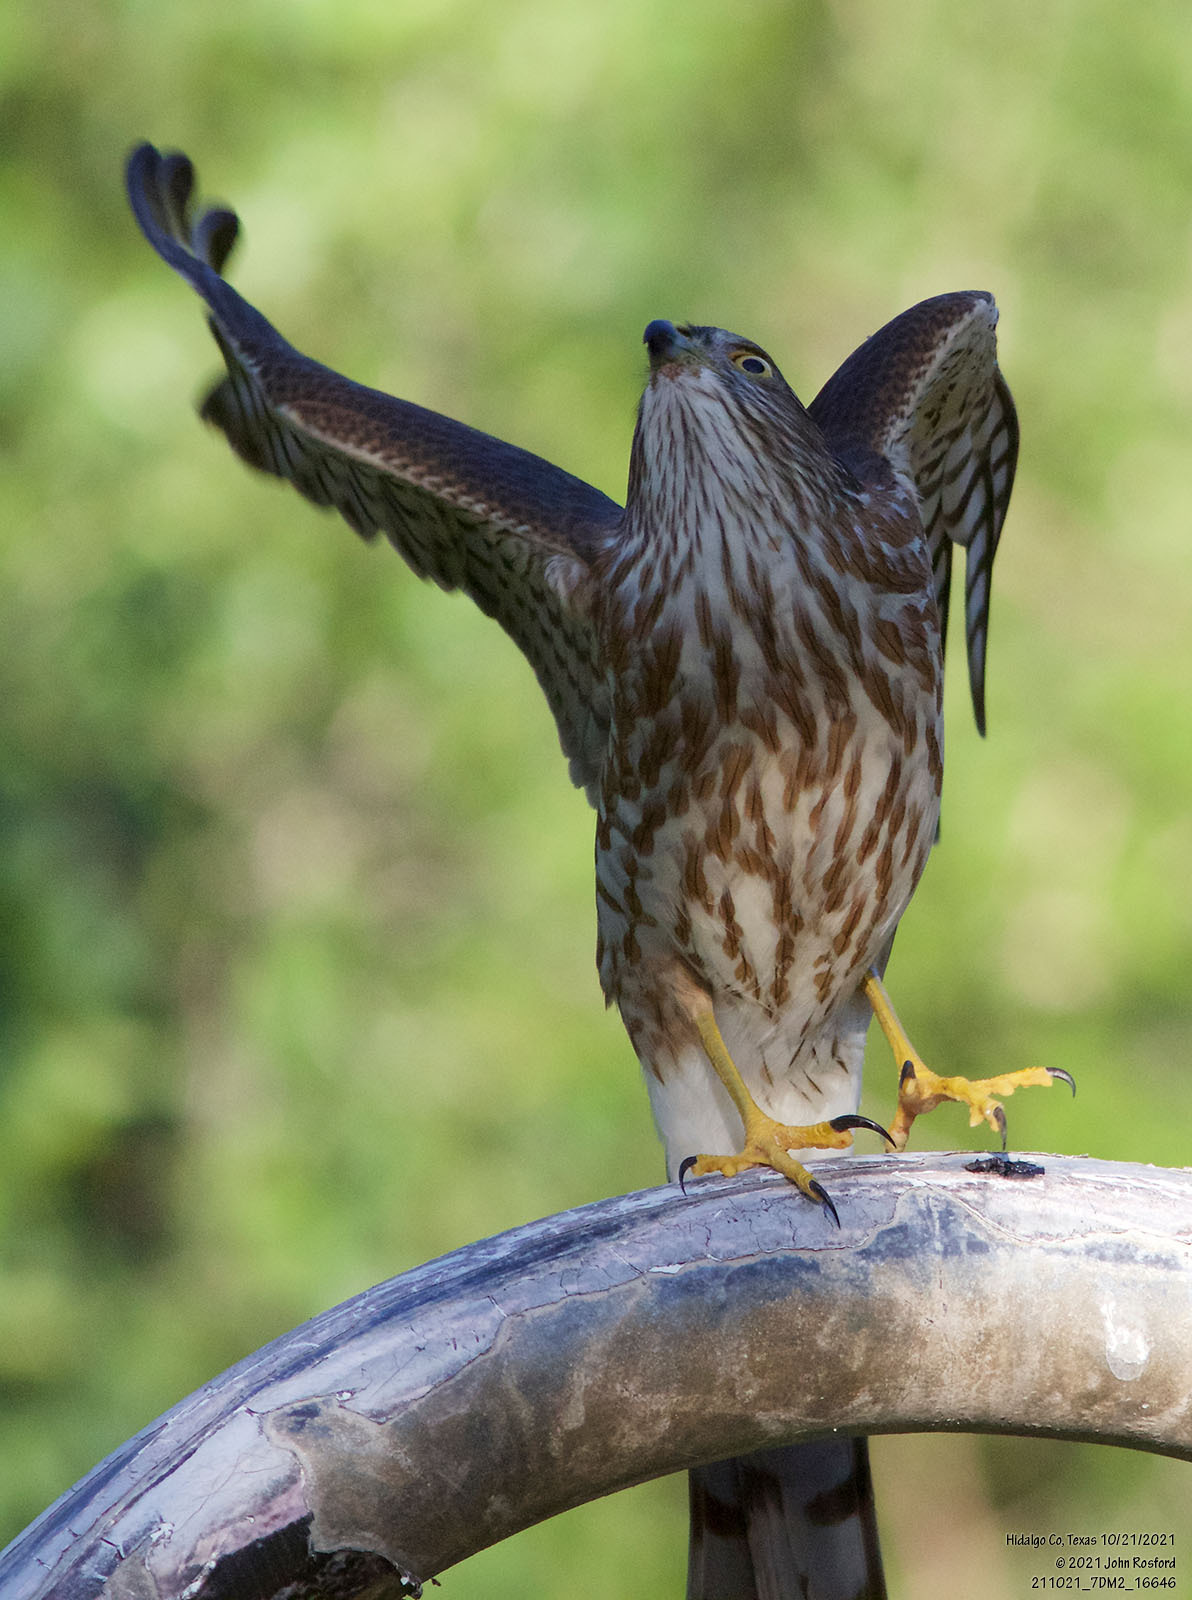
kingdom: Animalia
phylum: Chordata
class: Aves
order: Accipitriformes
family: Accipitridae
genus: Accipiter
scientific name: Accipiter striatus
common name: Sharp-shinned hawk
